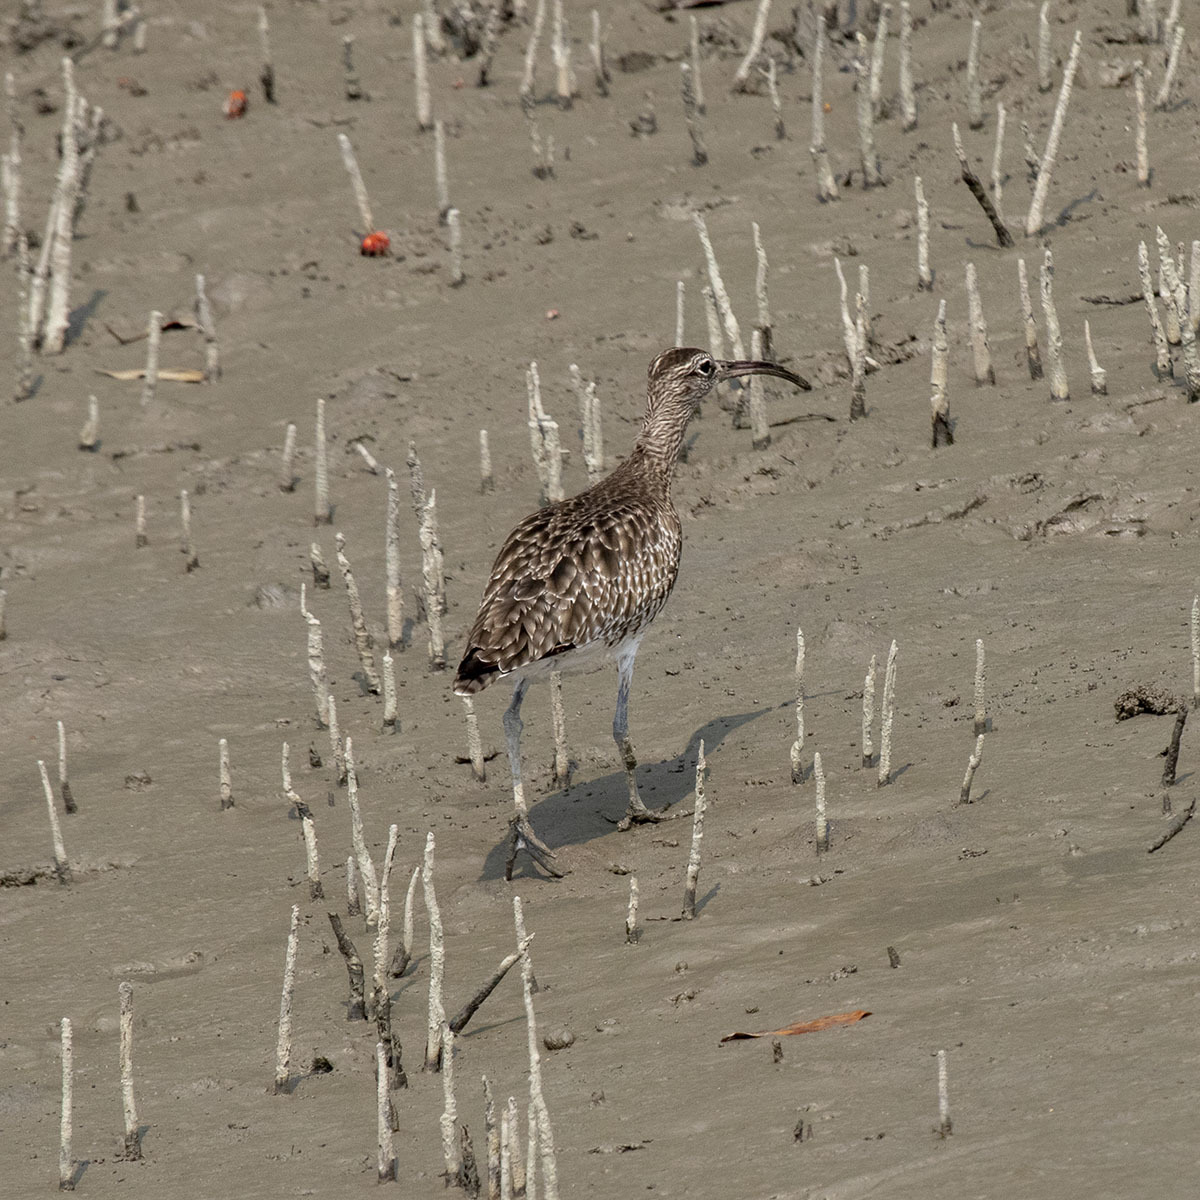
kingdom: Animalia
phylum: Chordata
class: Aves
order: Charadriiformes
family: Scolopacidae
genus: Numenius
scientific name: Numenius phaeopus
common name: Whimbrel
